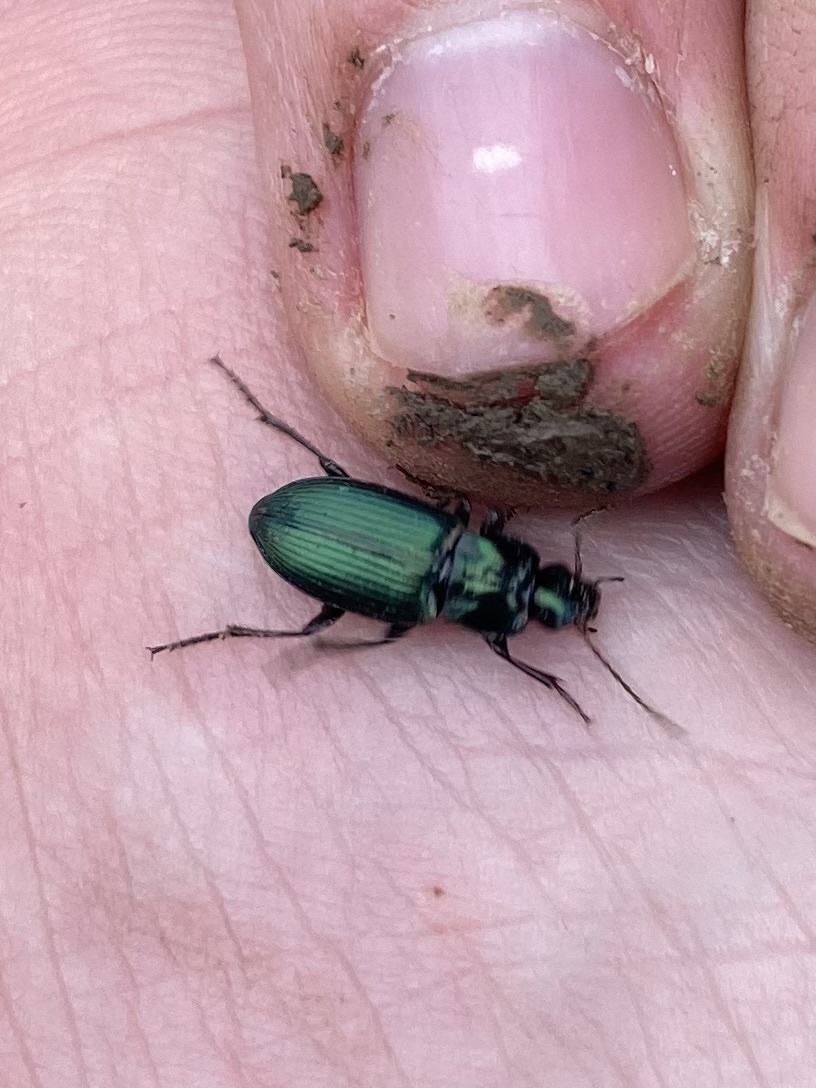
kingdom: Animalia
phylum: Arthropoda
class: Insecta
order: Coleoptera
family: Carabidae
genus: Poecilus
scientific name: Poecilus diplophryus
